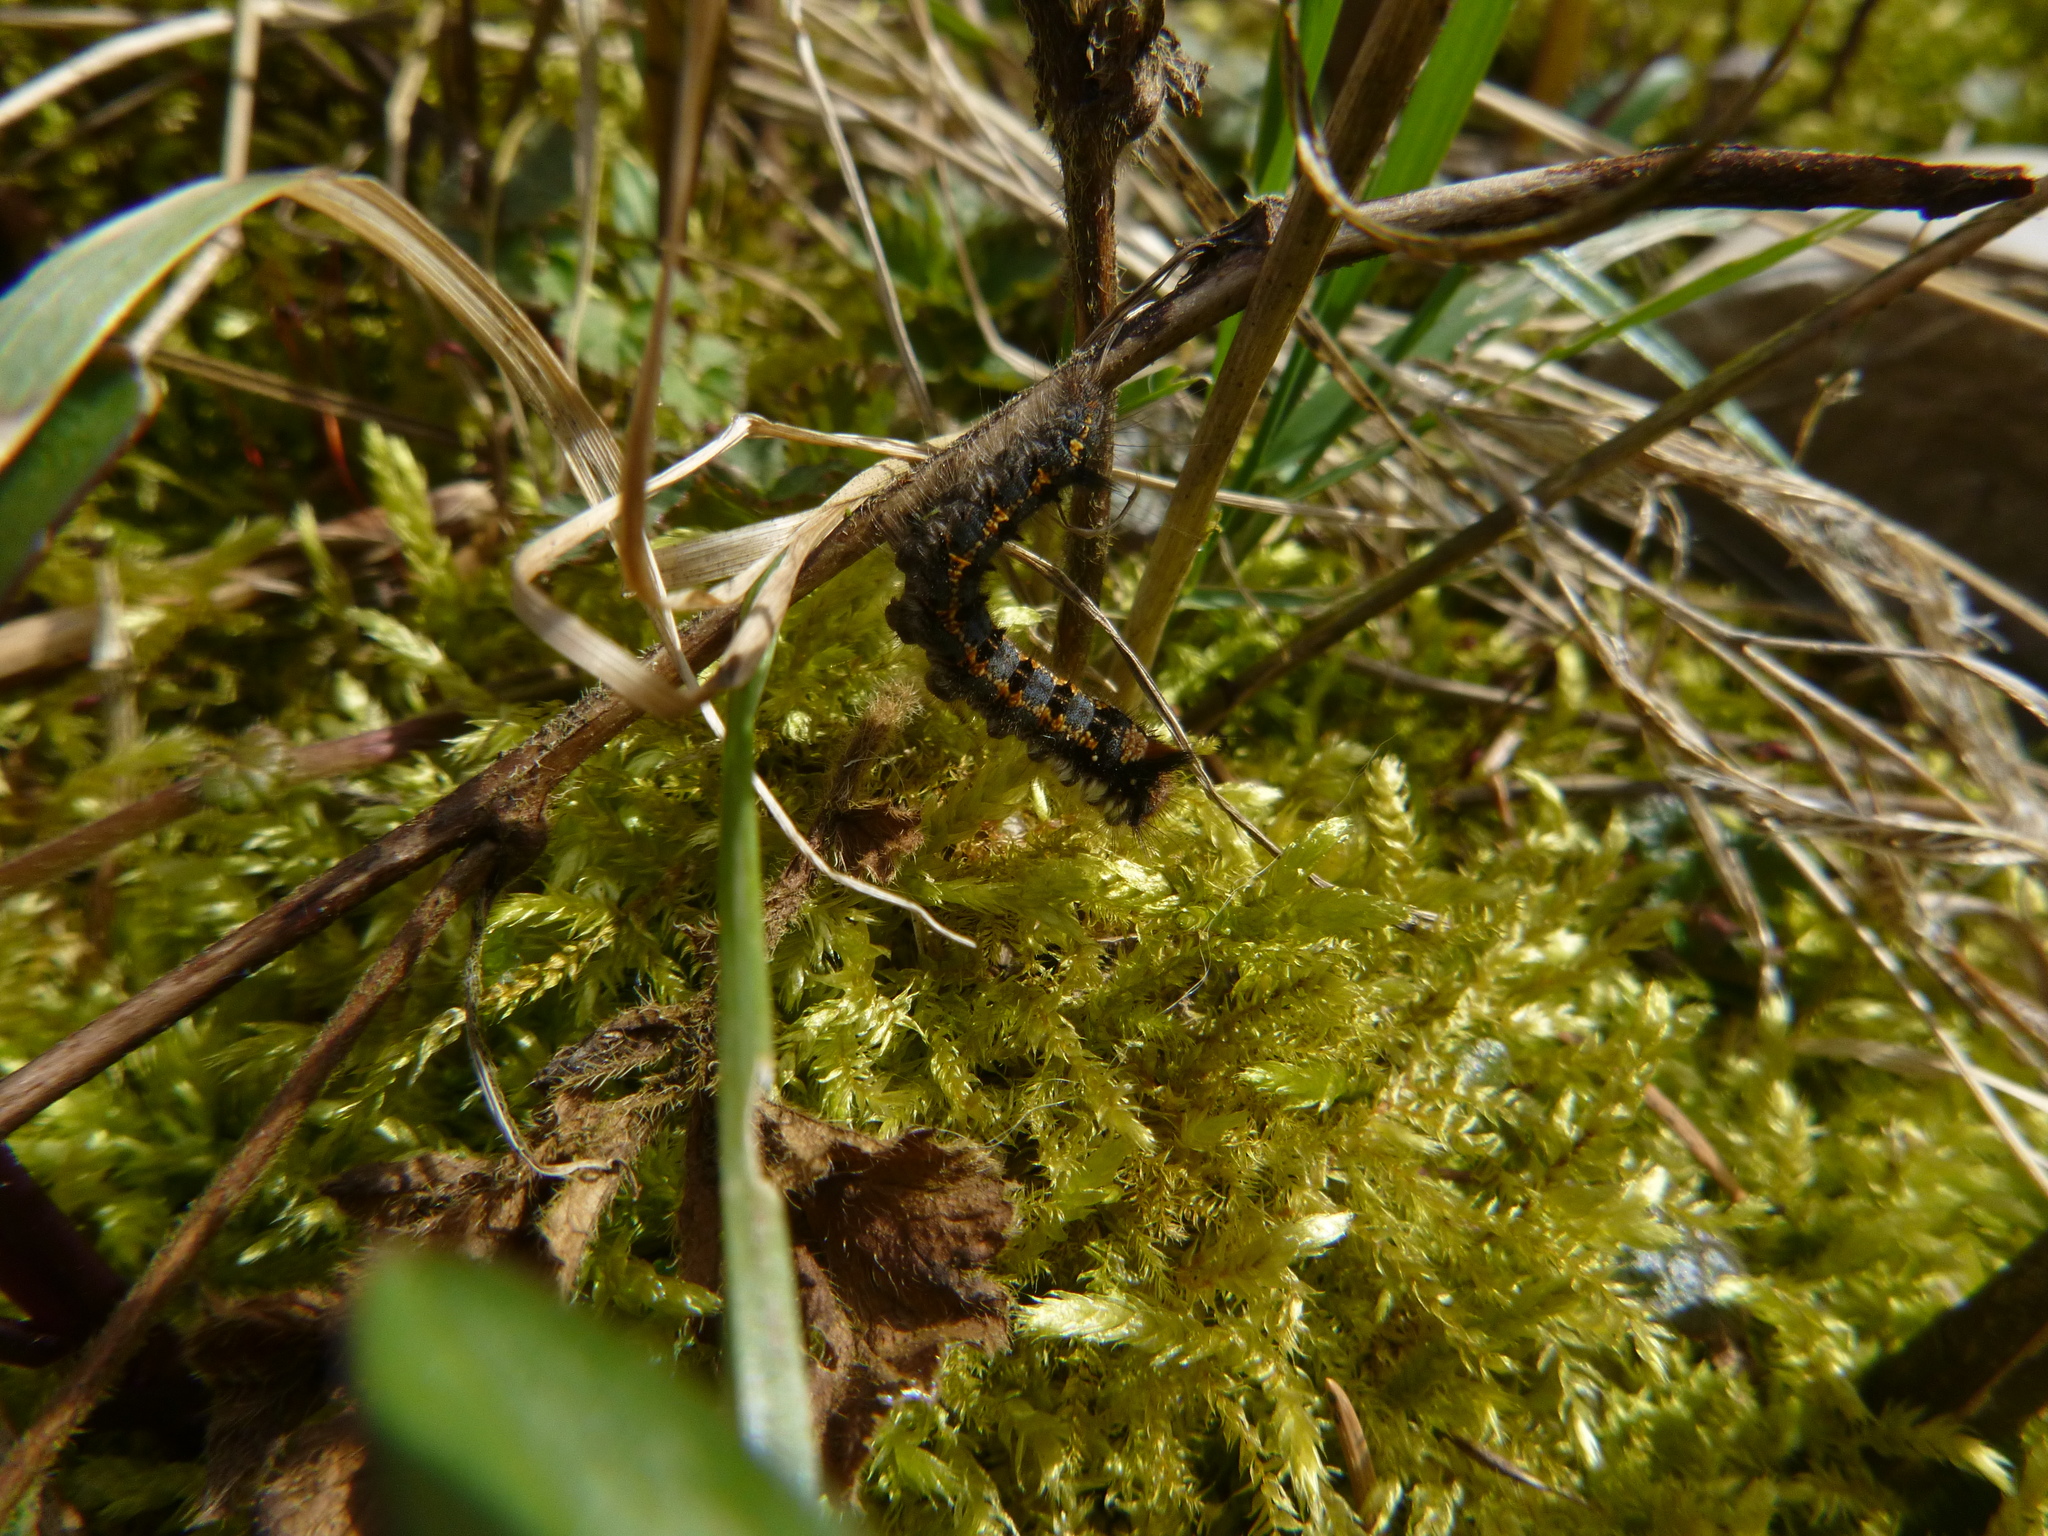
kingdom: Animalia
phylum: Arthropoda
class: Insecta
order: Lepidoptera
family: Lasiocampidae
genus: Euthrix
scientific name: Euthrix potatoria
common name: Drinker
